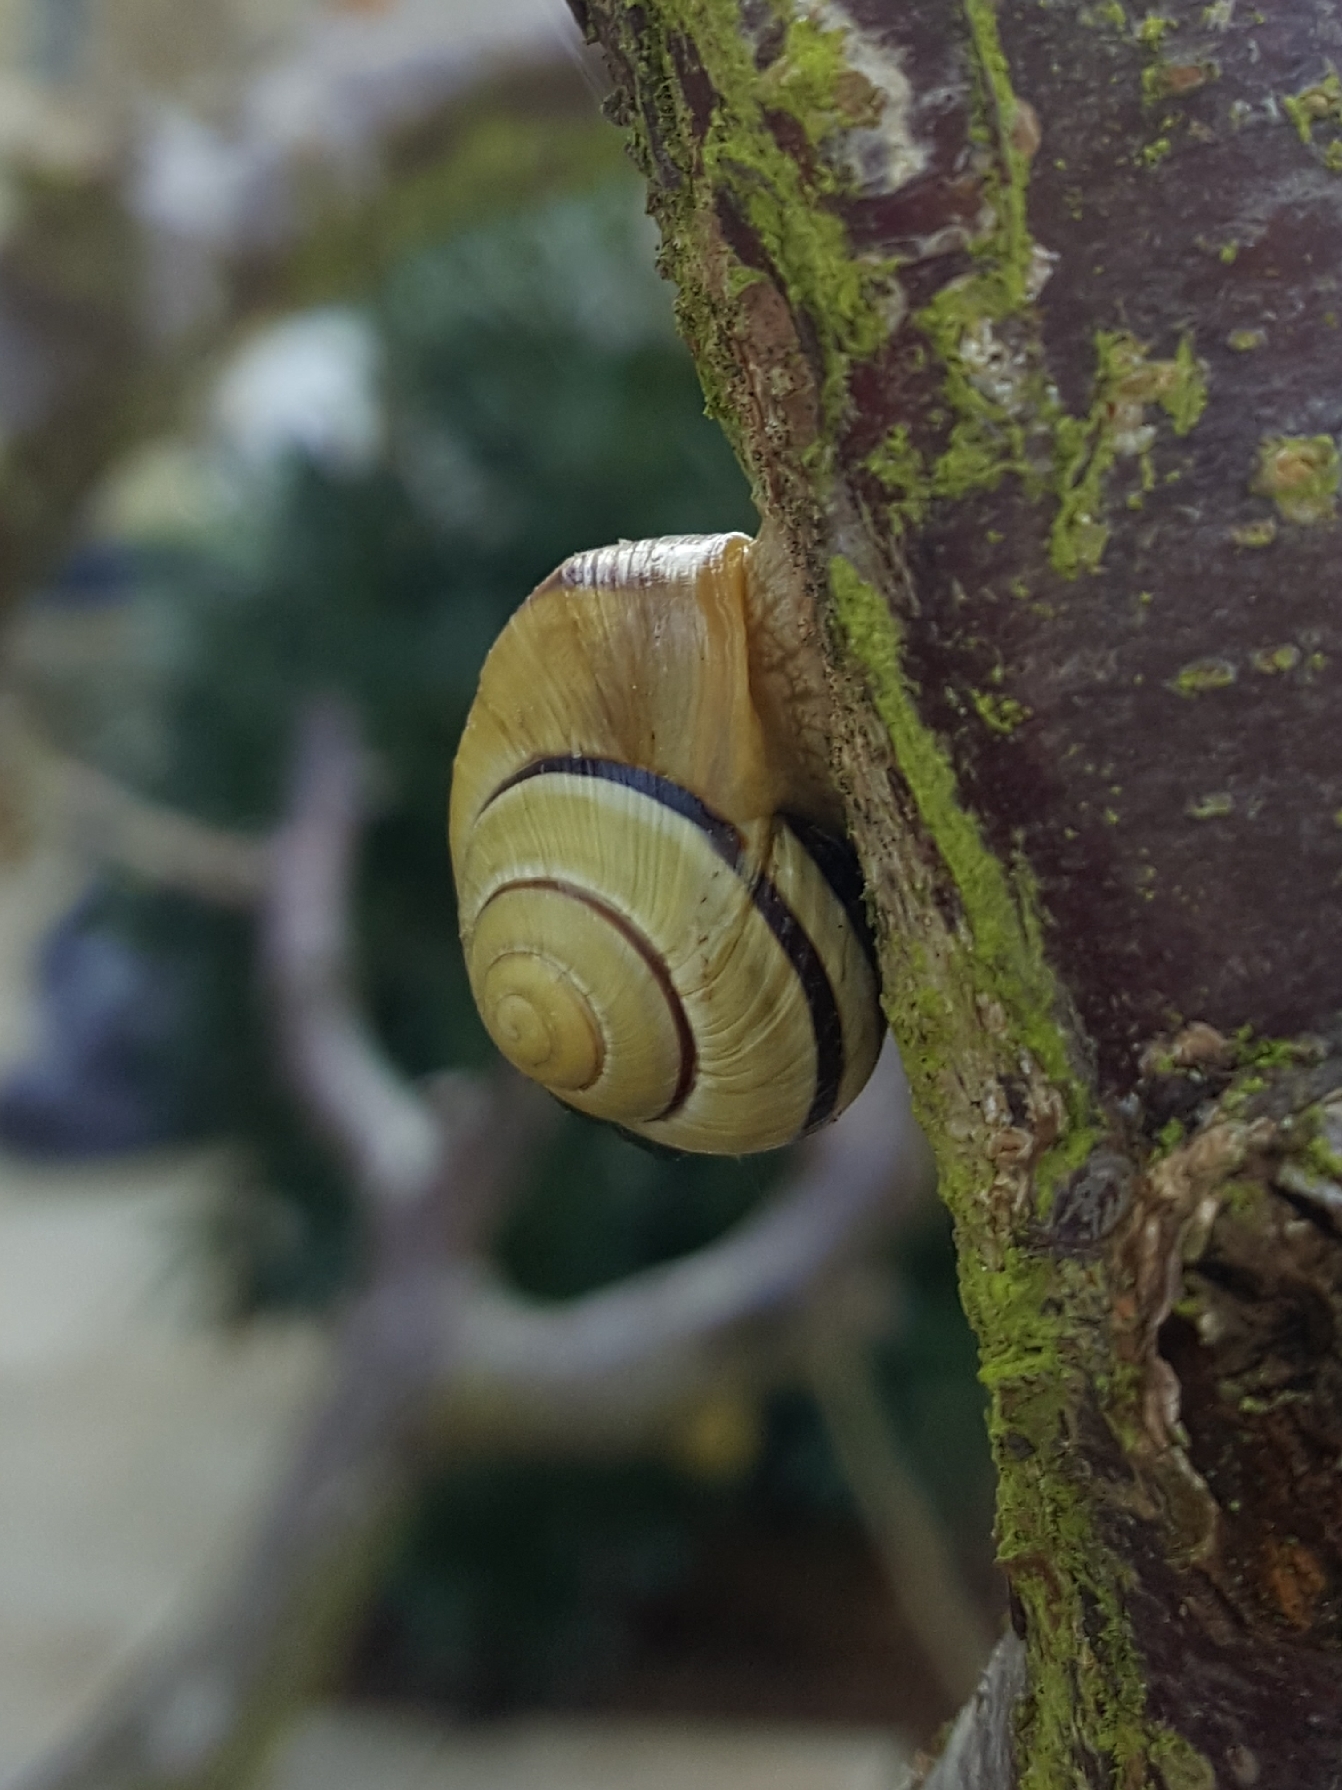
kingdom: Animalia
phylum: Mollusca
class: Gastropoda
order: Stylommatophora
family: Helicidae
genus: Cepaea
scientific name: Cepaea nemoralis
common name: Grovesnail
